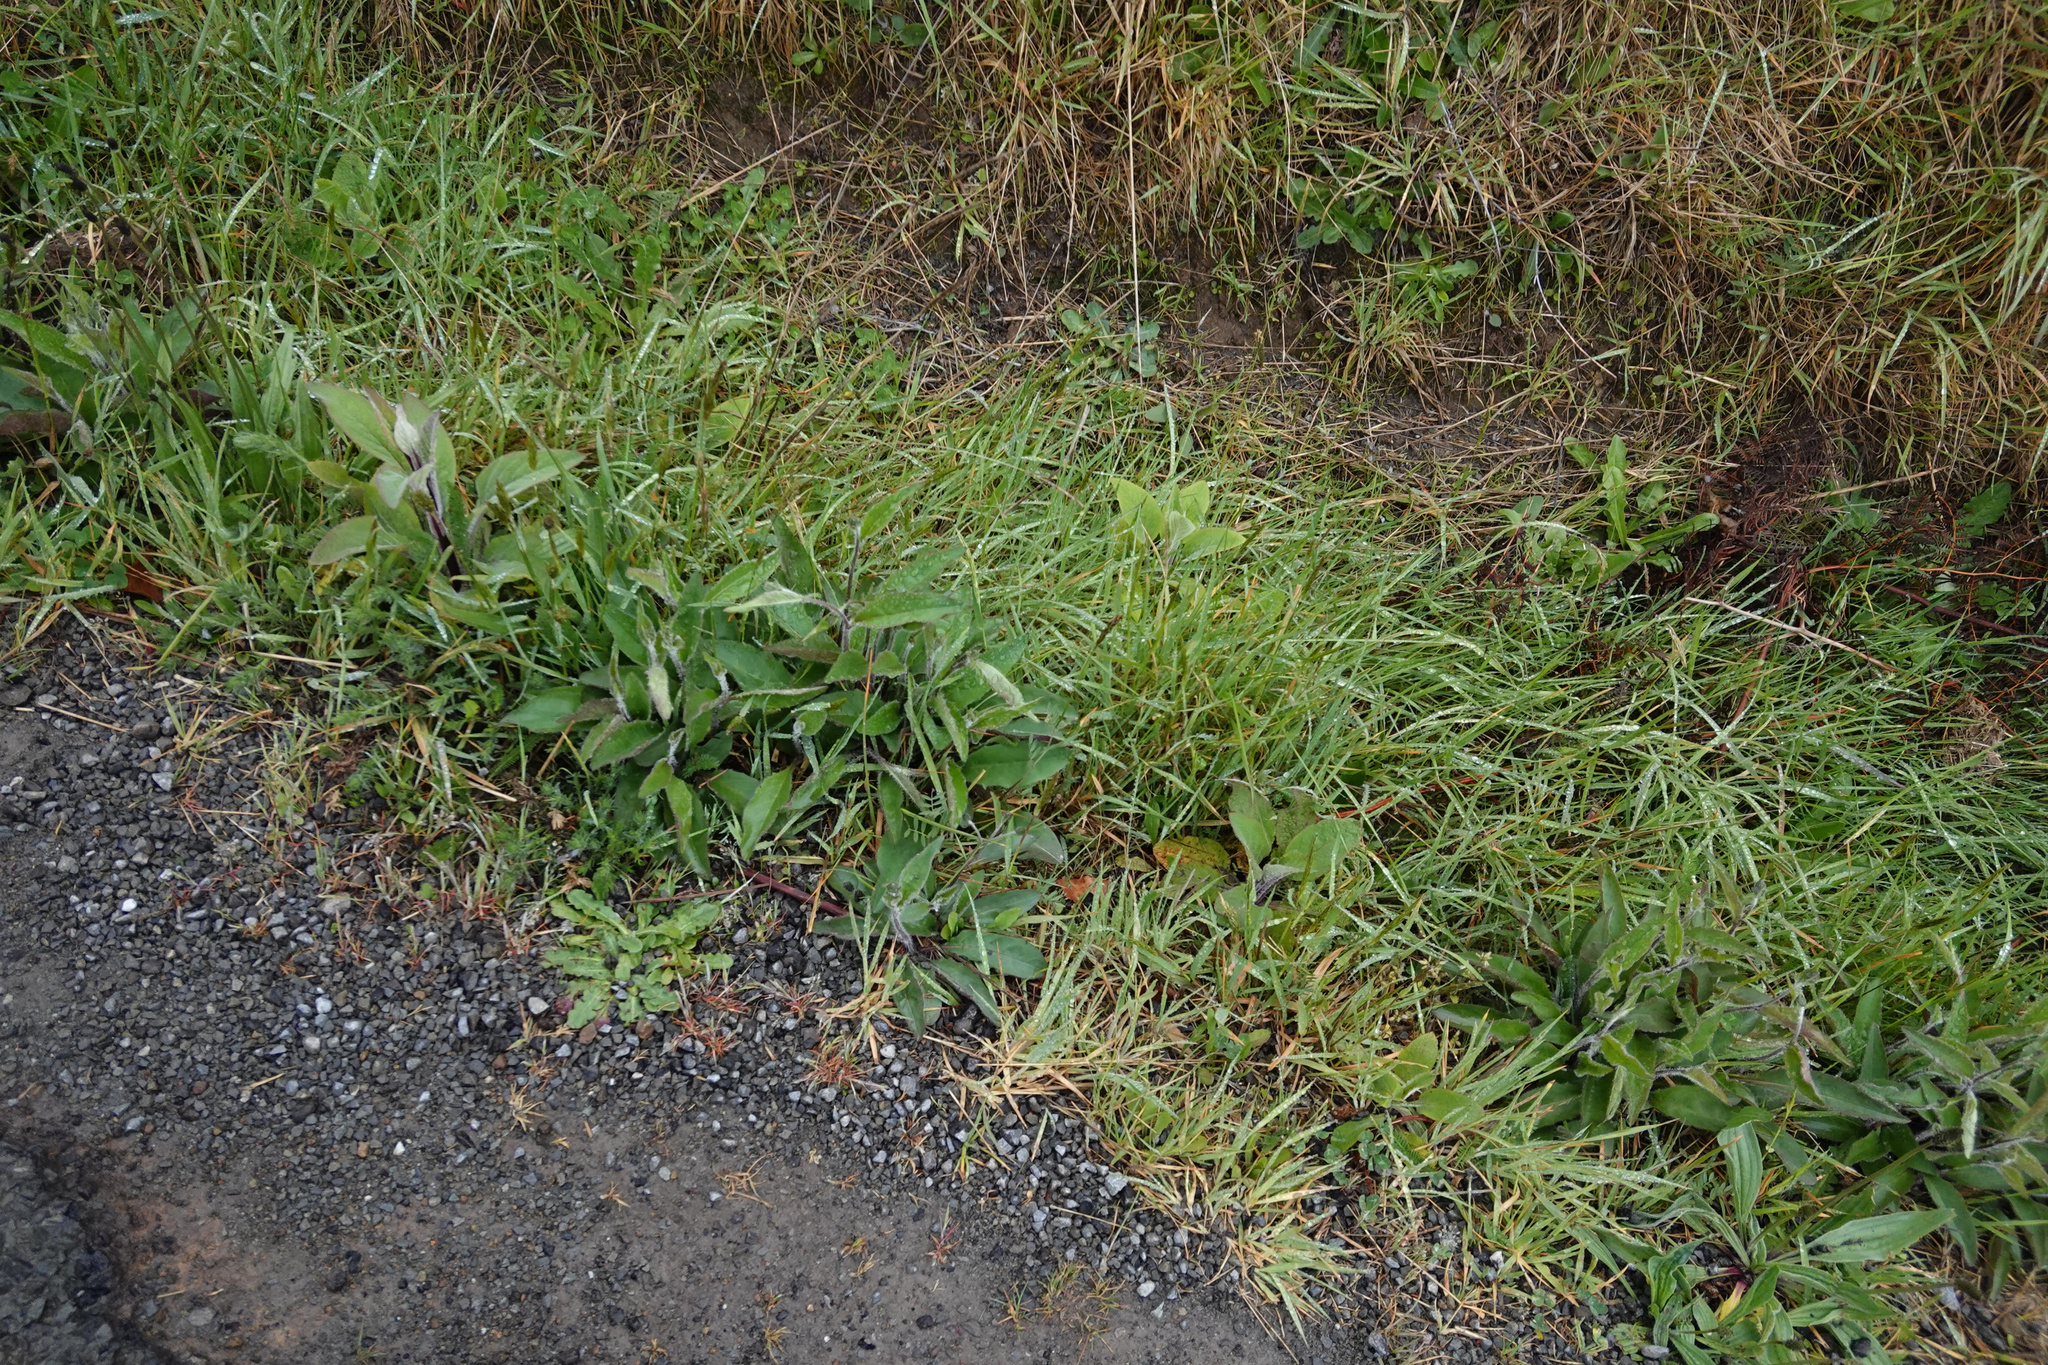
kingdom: Plantae
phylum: Tracheophyta
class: Magnoliopsida
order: Asterales
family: Asteraceae
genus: Hieracium
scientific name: Hieracium lepidulum
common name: Irregular-toothed hawkweed
